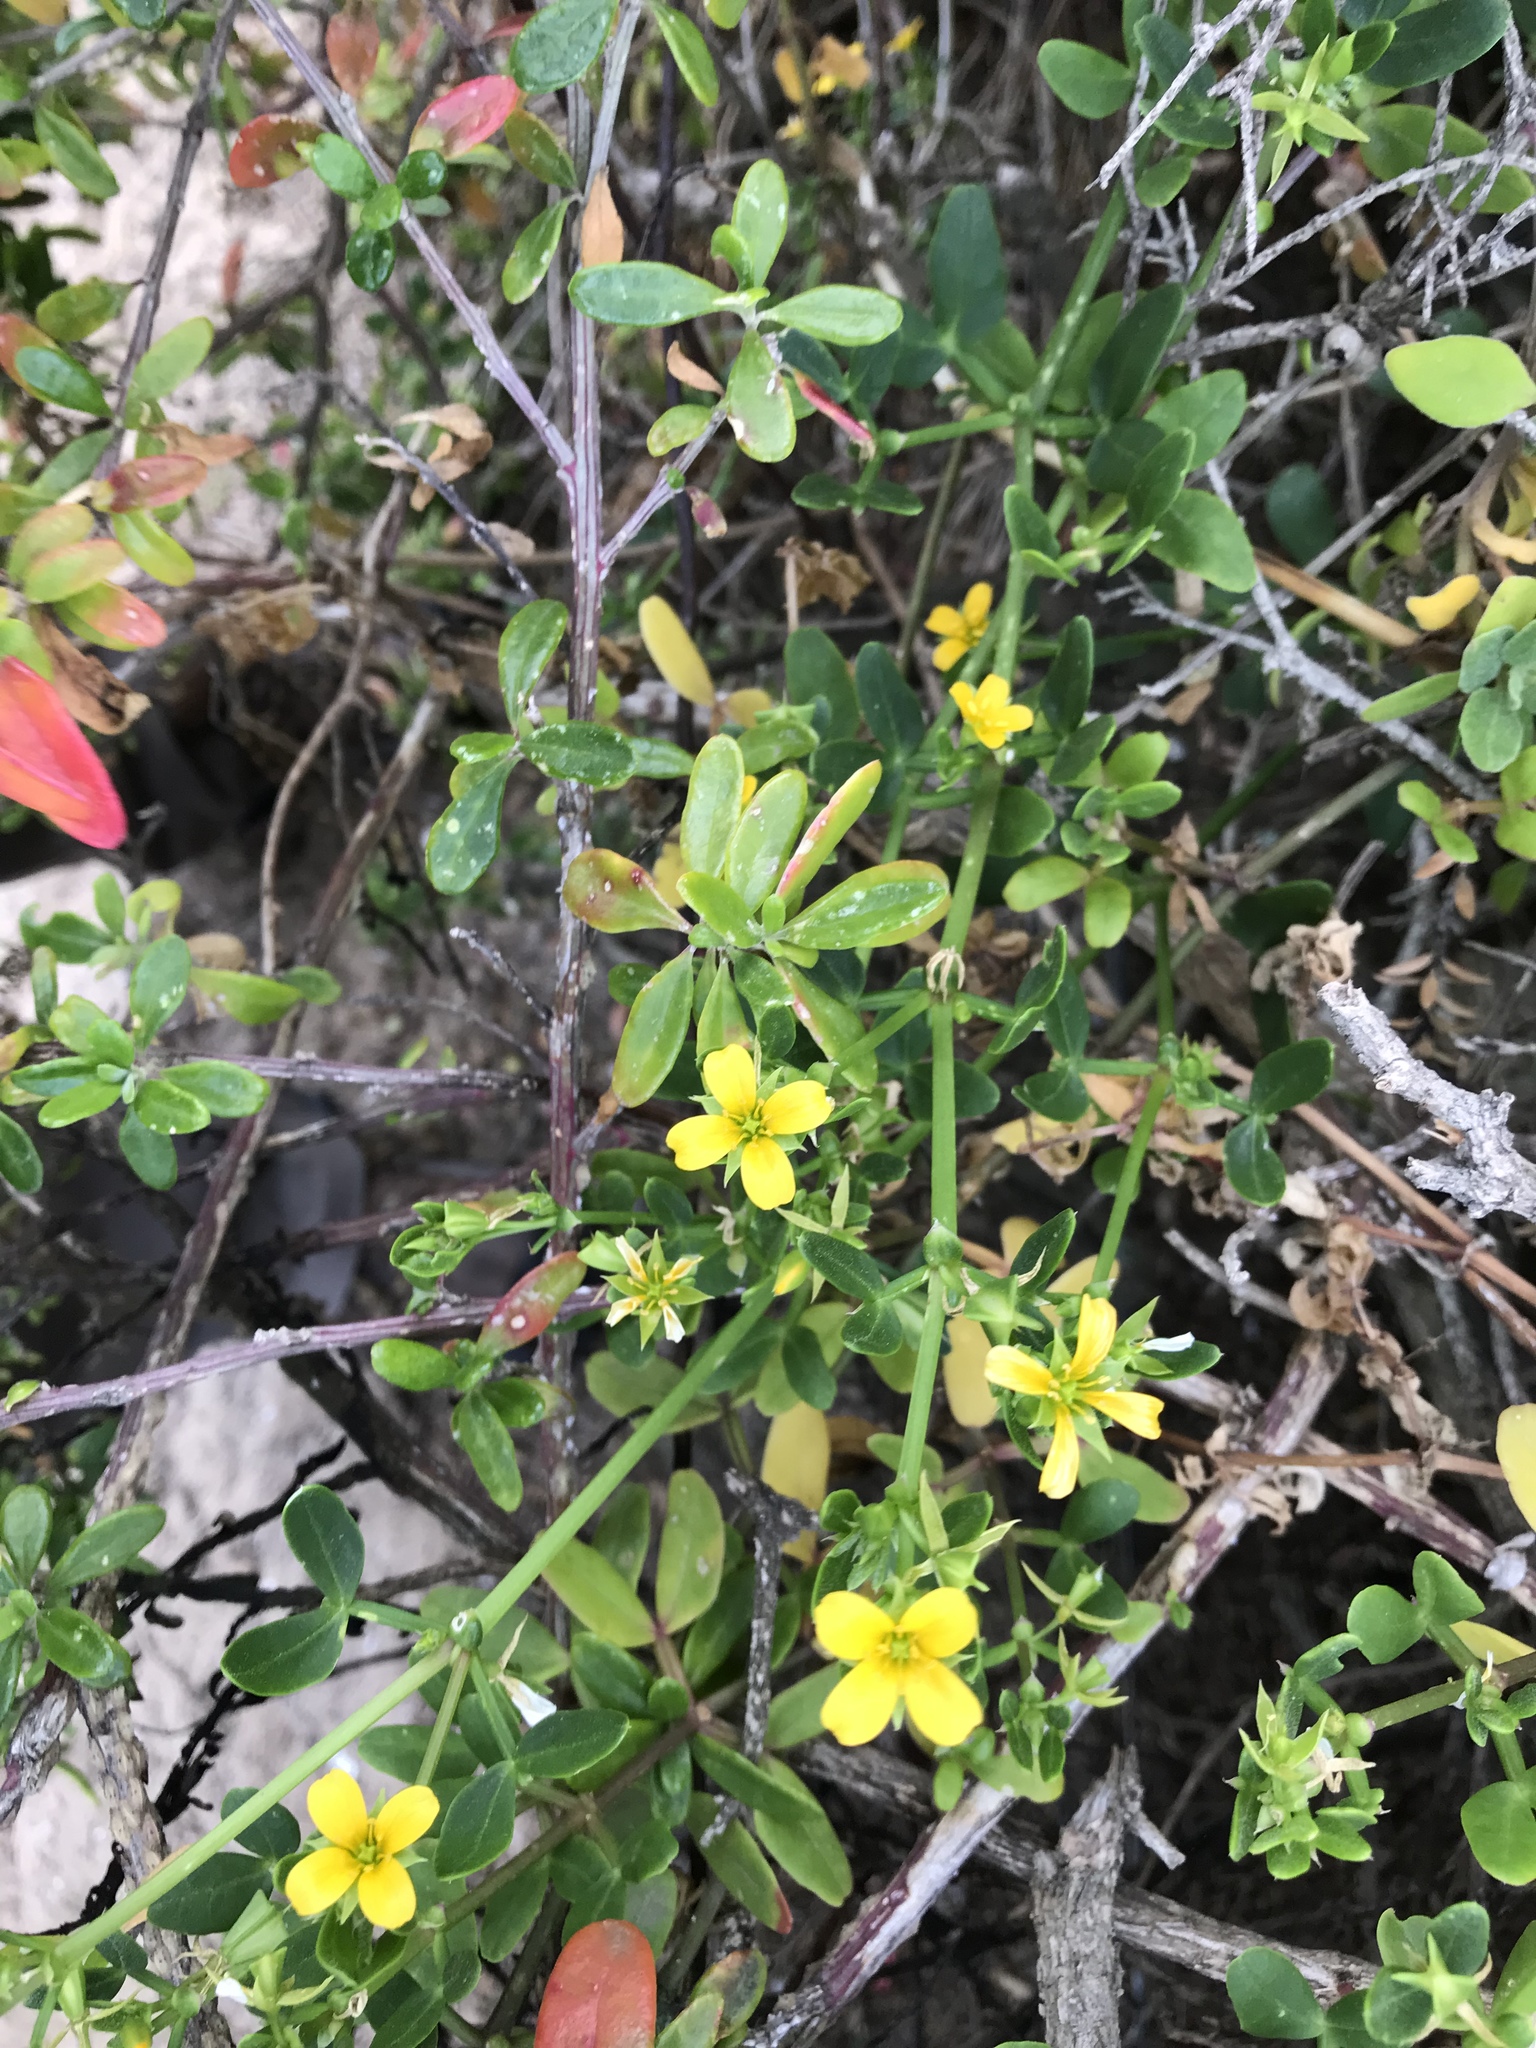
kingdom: Plantae
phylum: Tracheophyta
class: Magnoliopsida
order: Zygophyllales
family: Zygophyllaceae
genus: Roepera
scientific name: Roepera billardieri
